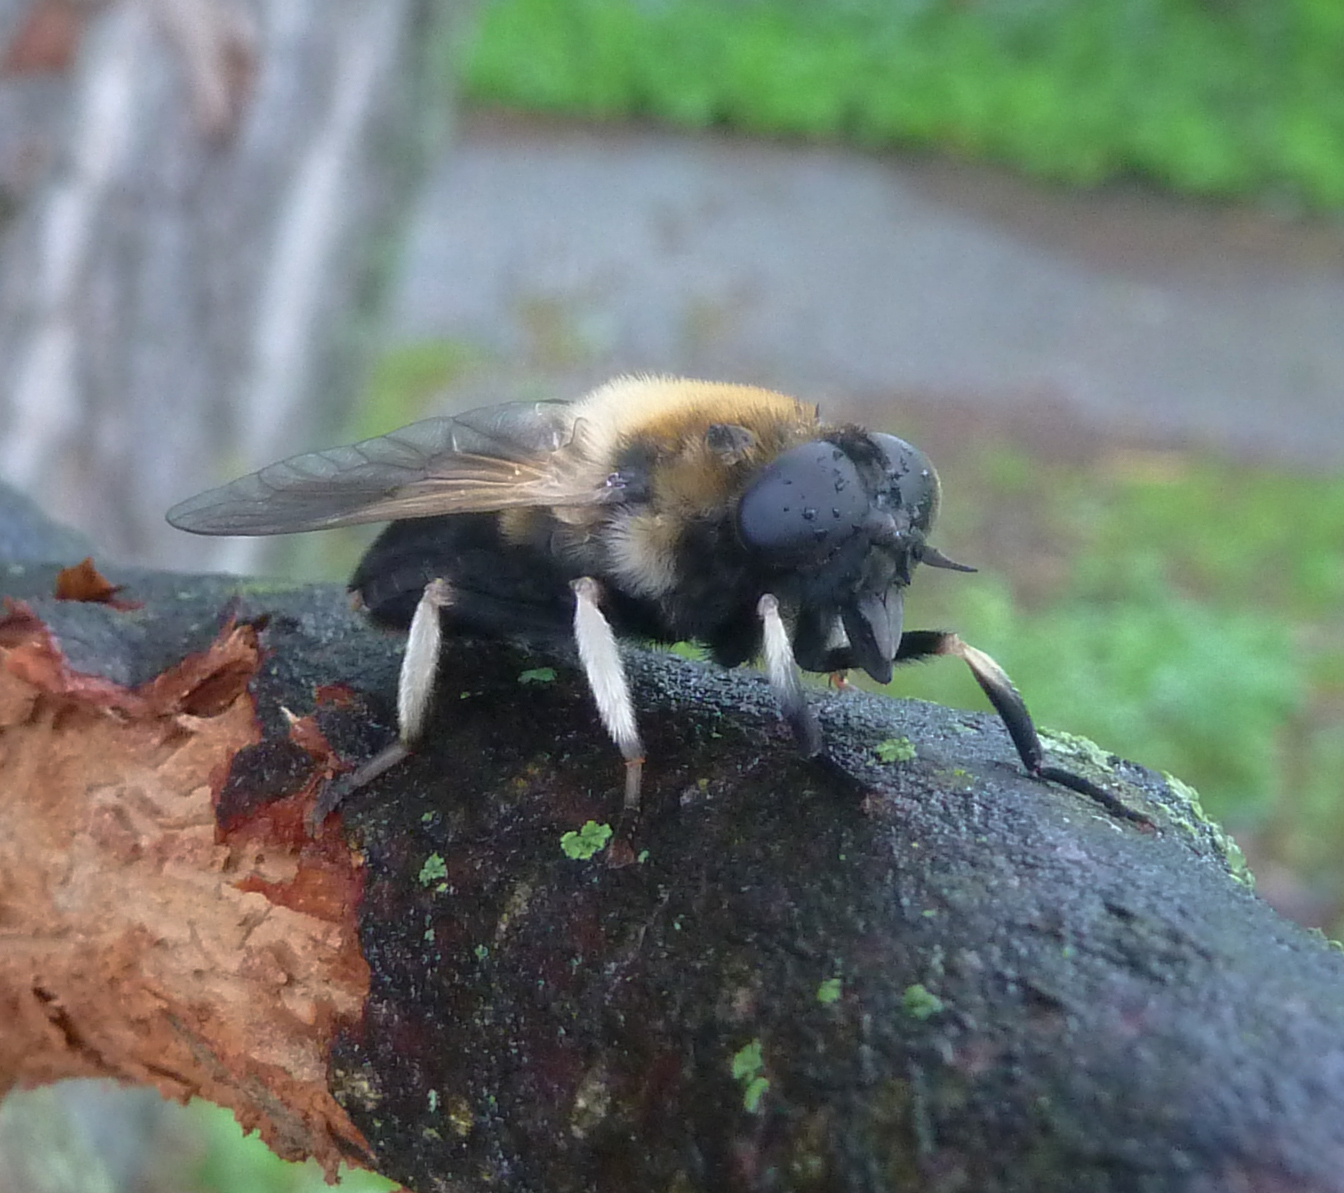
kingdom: Animalia
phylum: Arthropoda
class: Insecta
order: Diptera
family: Tabanidae
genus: Therioplectes
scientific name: Therioplectes gigas
